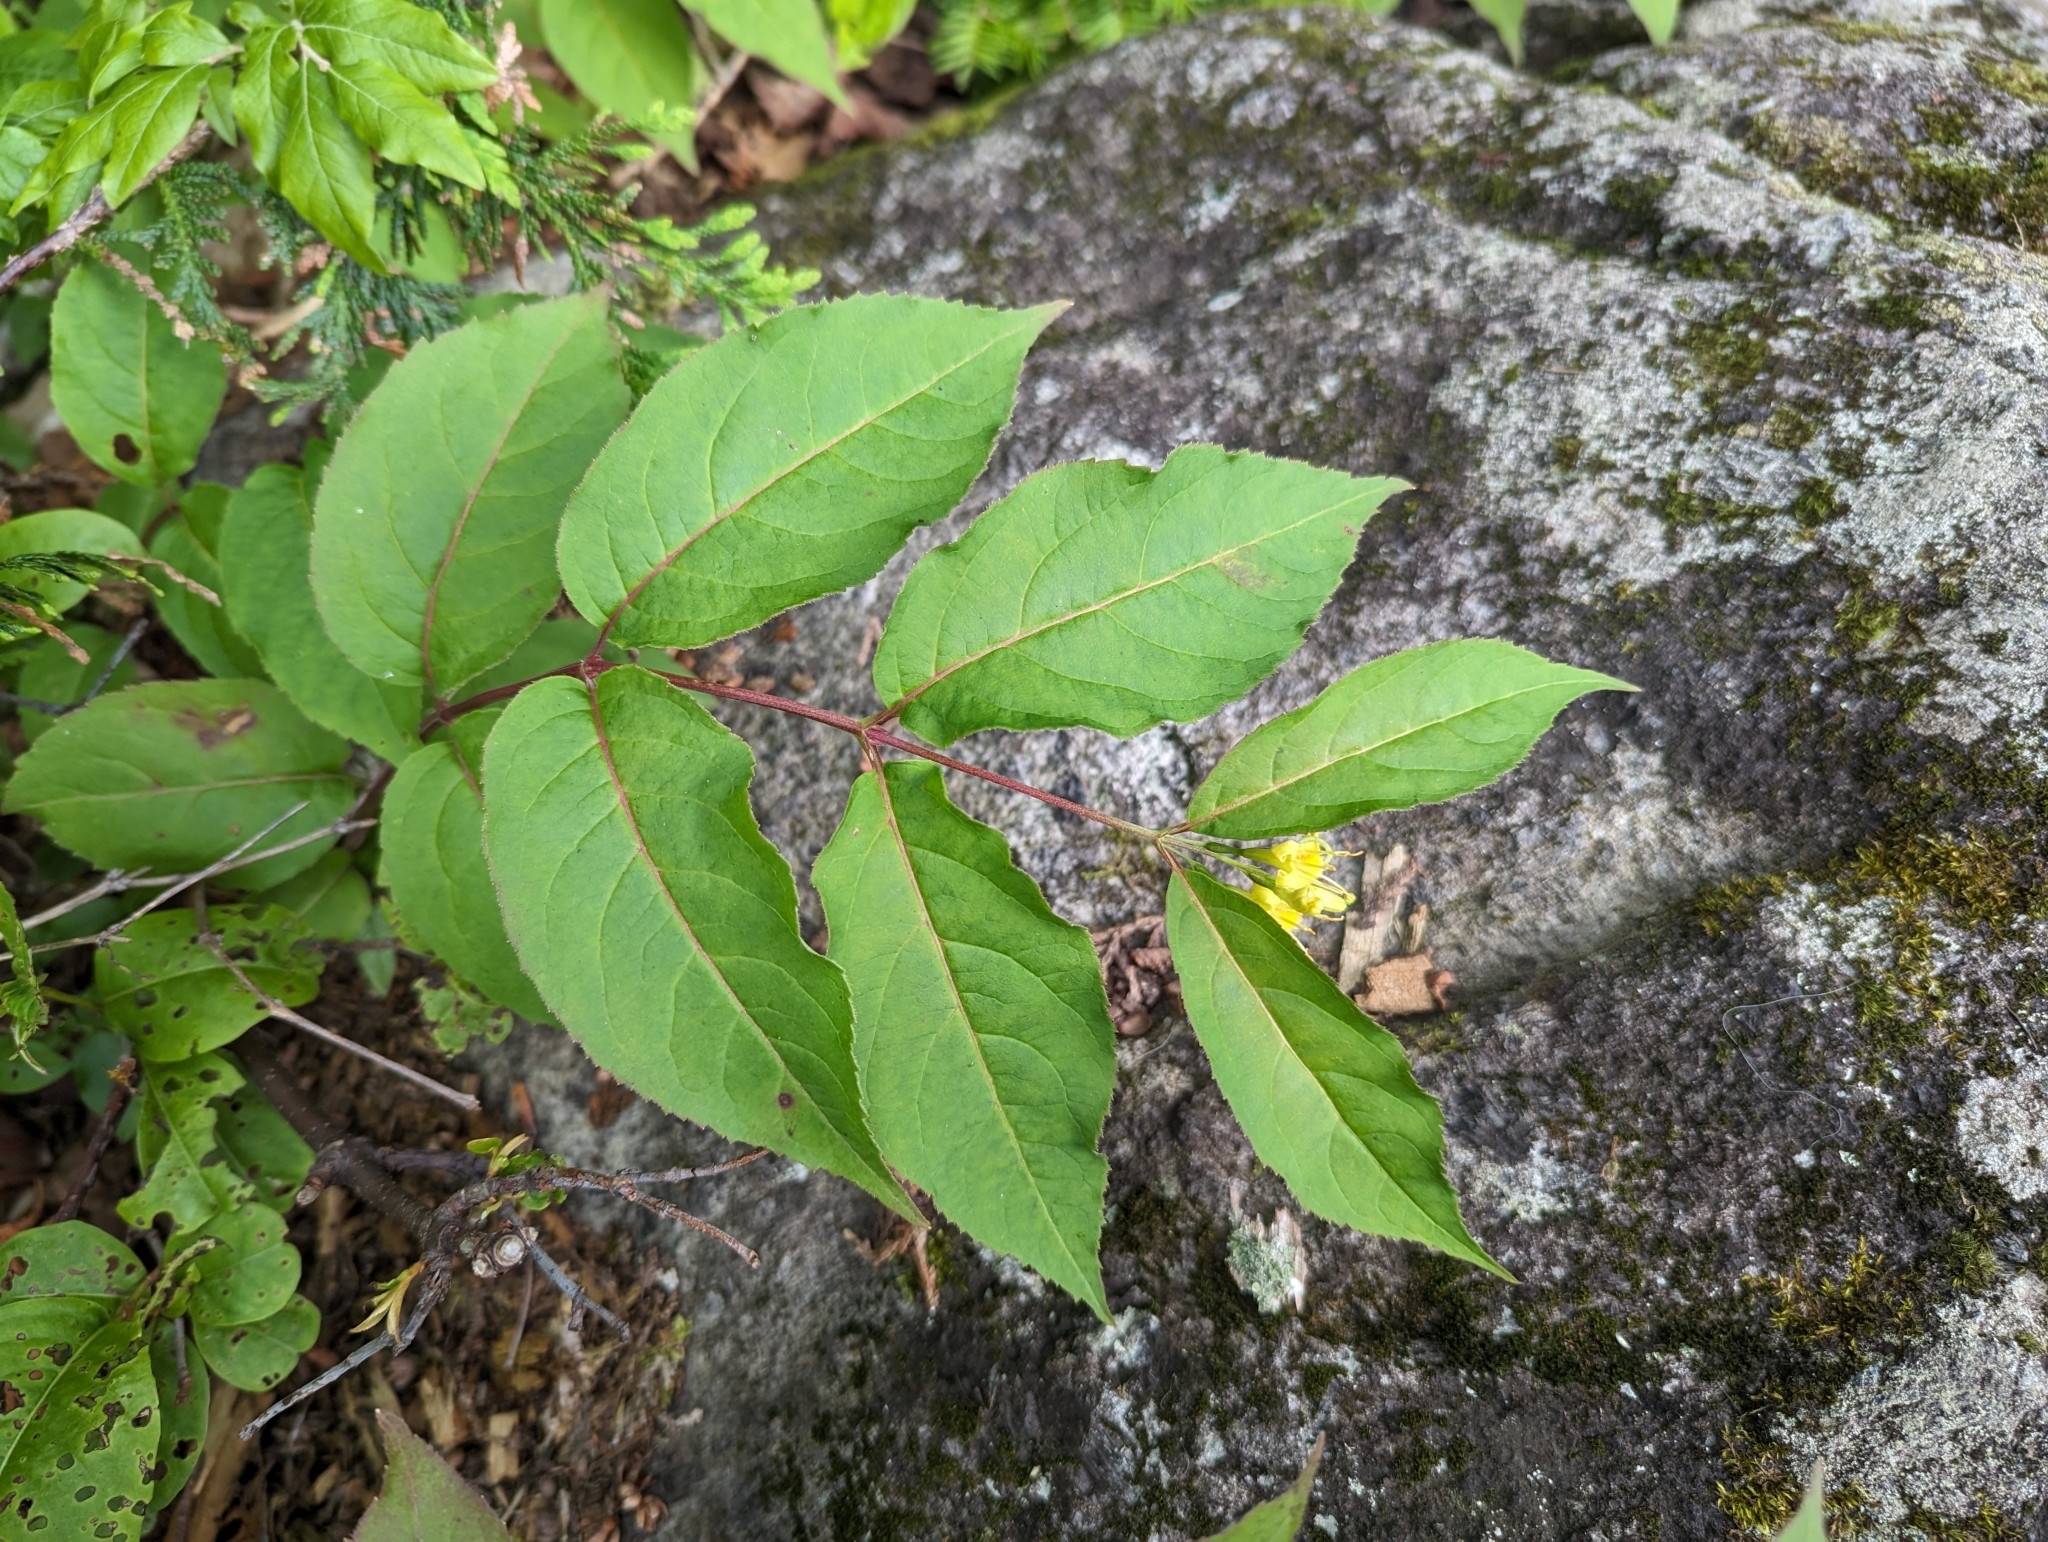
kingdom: Plantae
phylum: Tracheophyta
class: Magnoliopsida
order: Dipsacales
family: Caprifoliaceae
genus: Diervilla
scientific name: Diervilla lonicera
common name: Bush-honeysuckle
